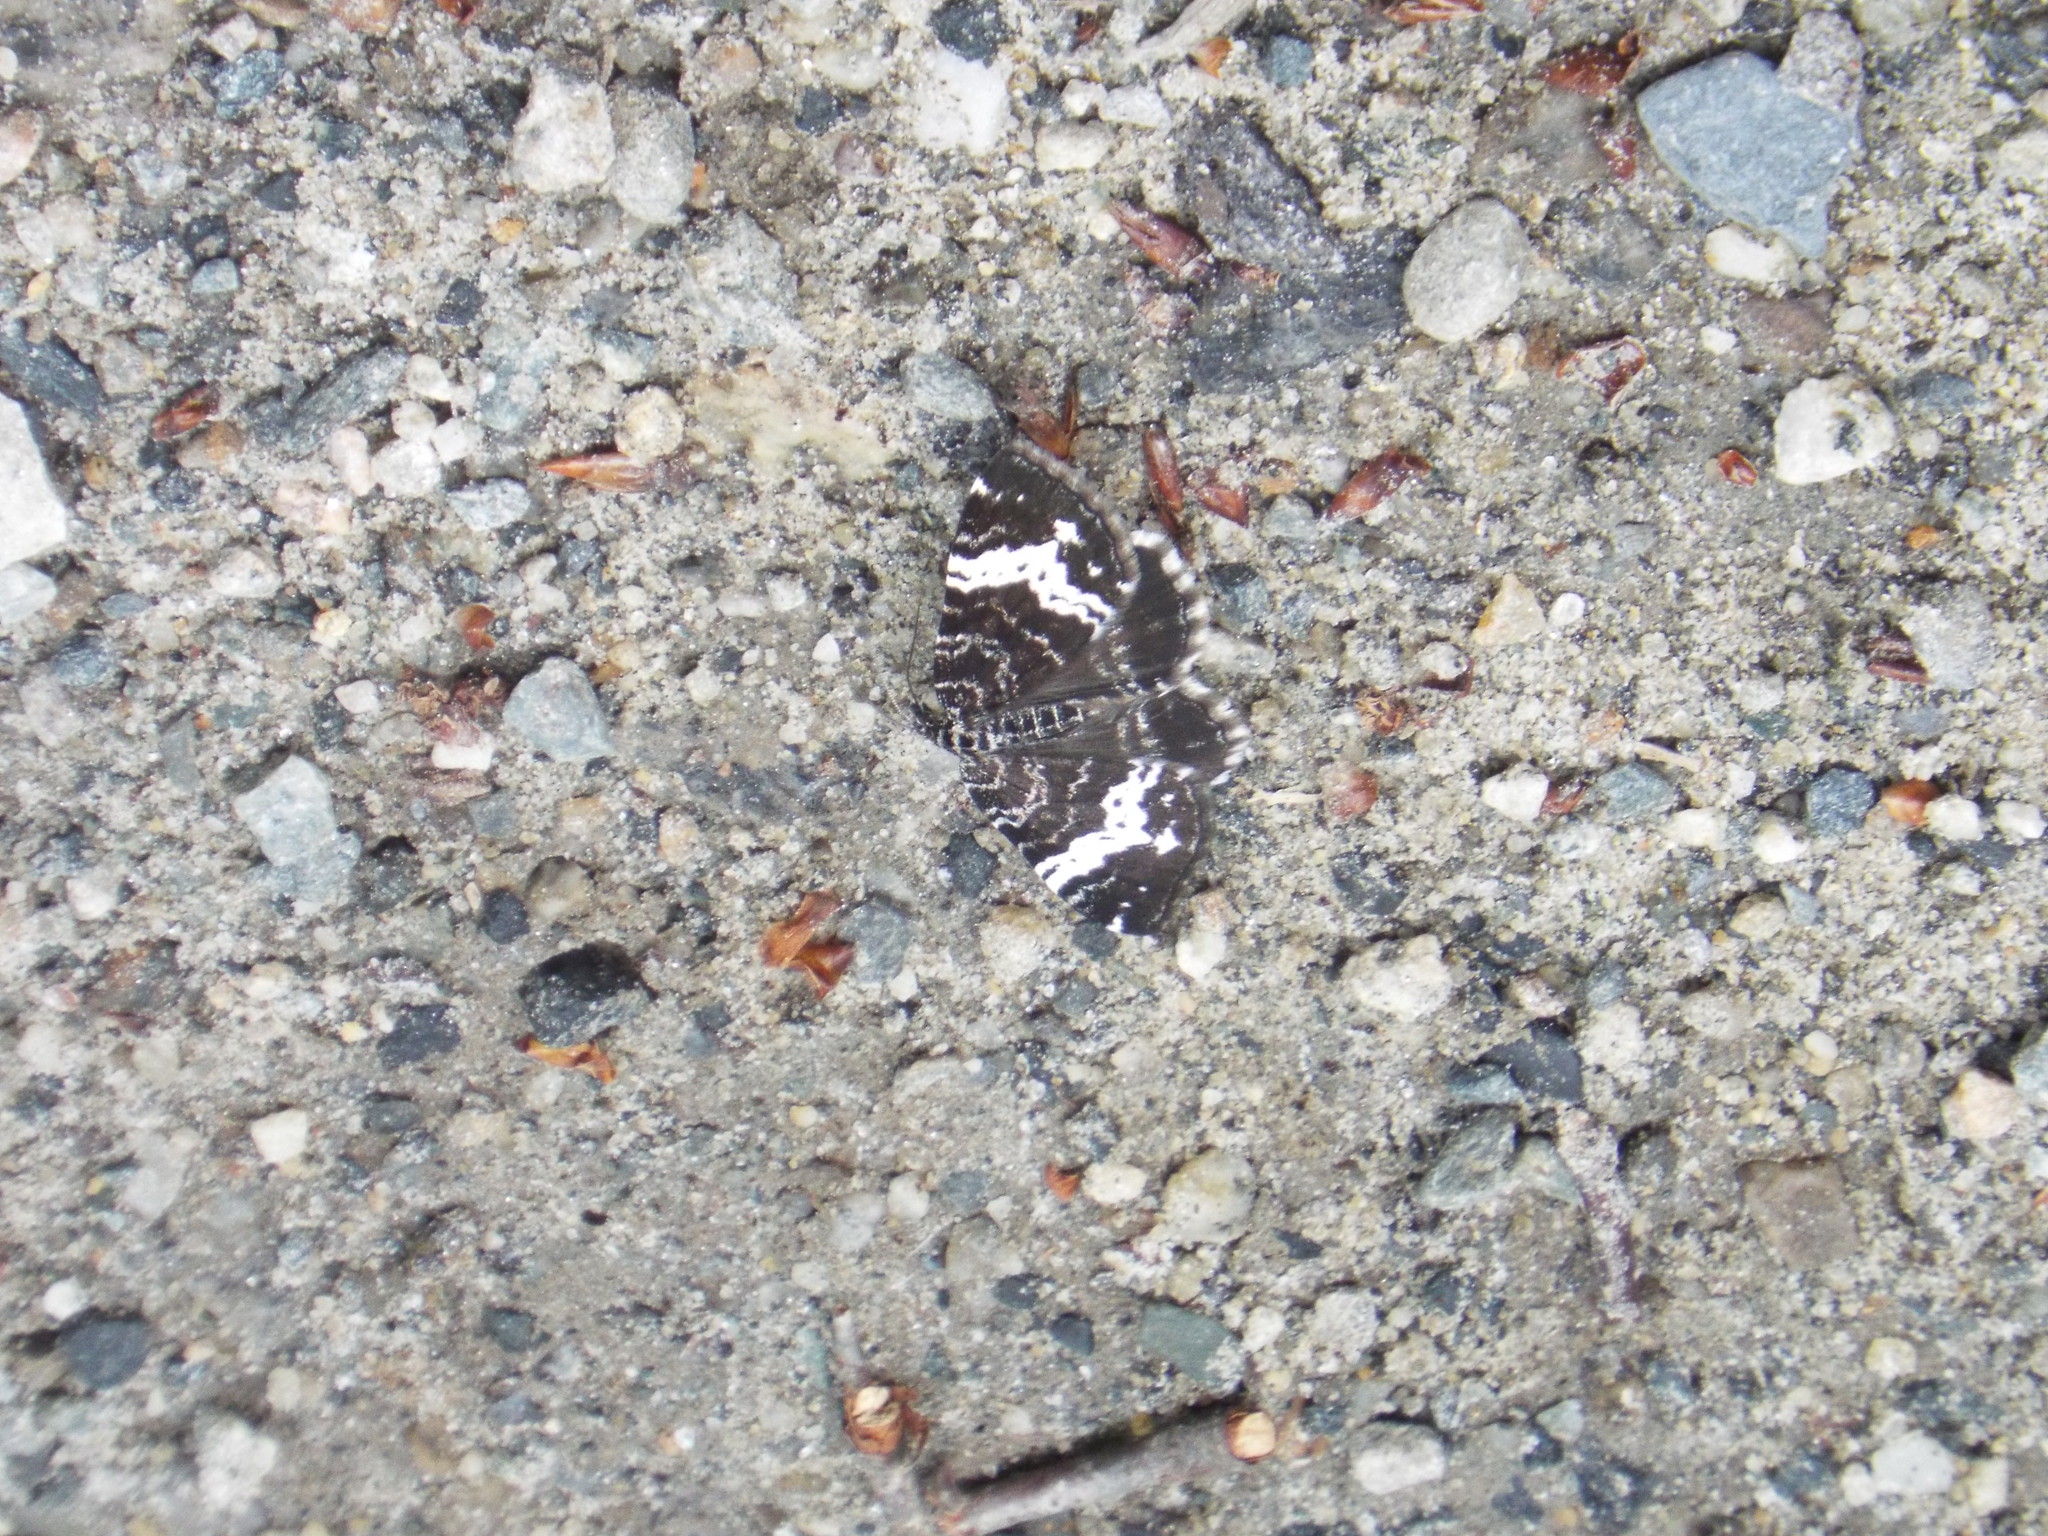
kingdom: Animalia
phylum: Arthropoda
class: Insecta
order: Lepidoptera
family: Geometridae
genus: Rheumaptera
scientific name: Rheumaptera
